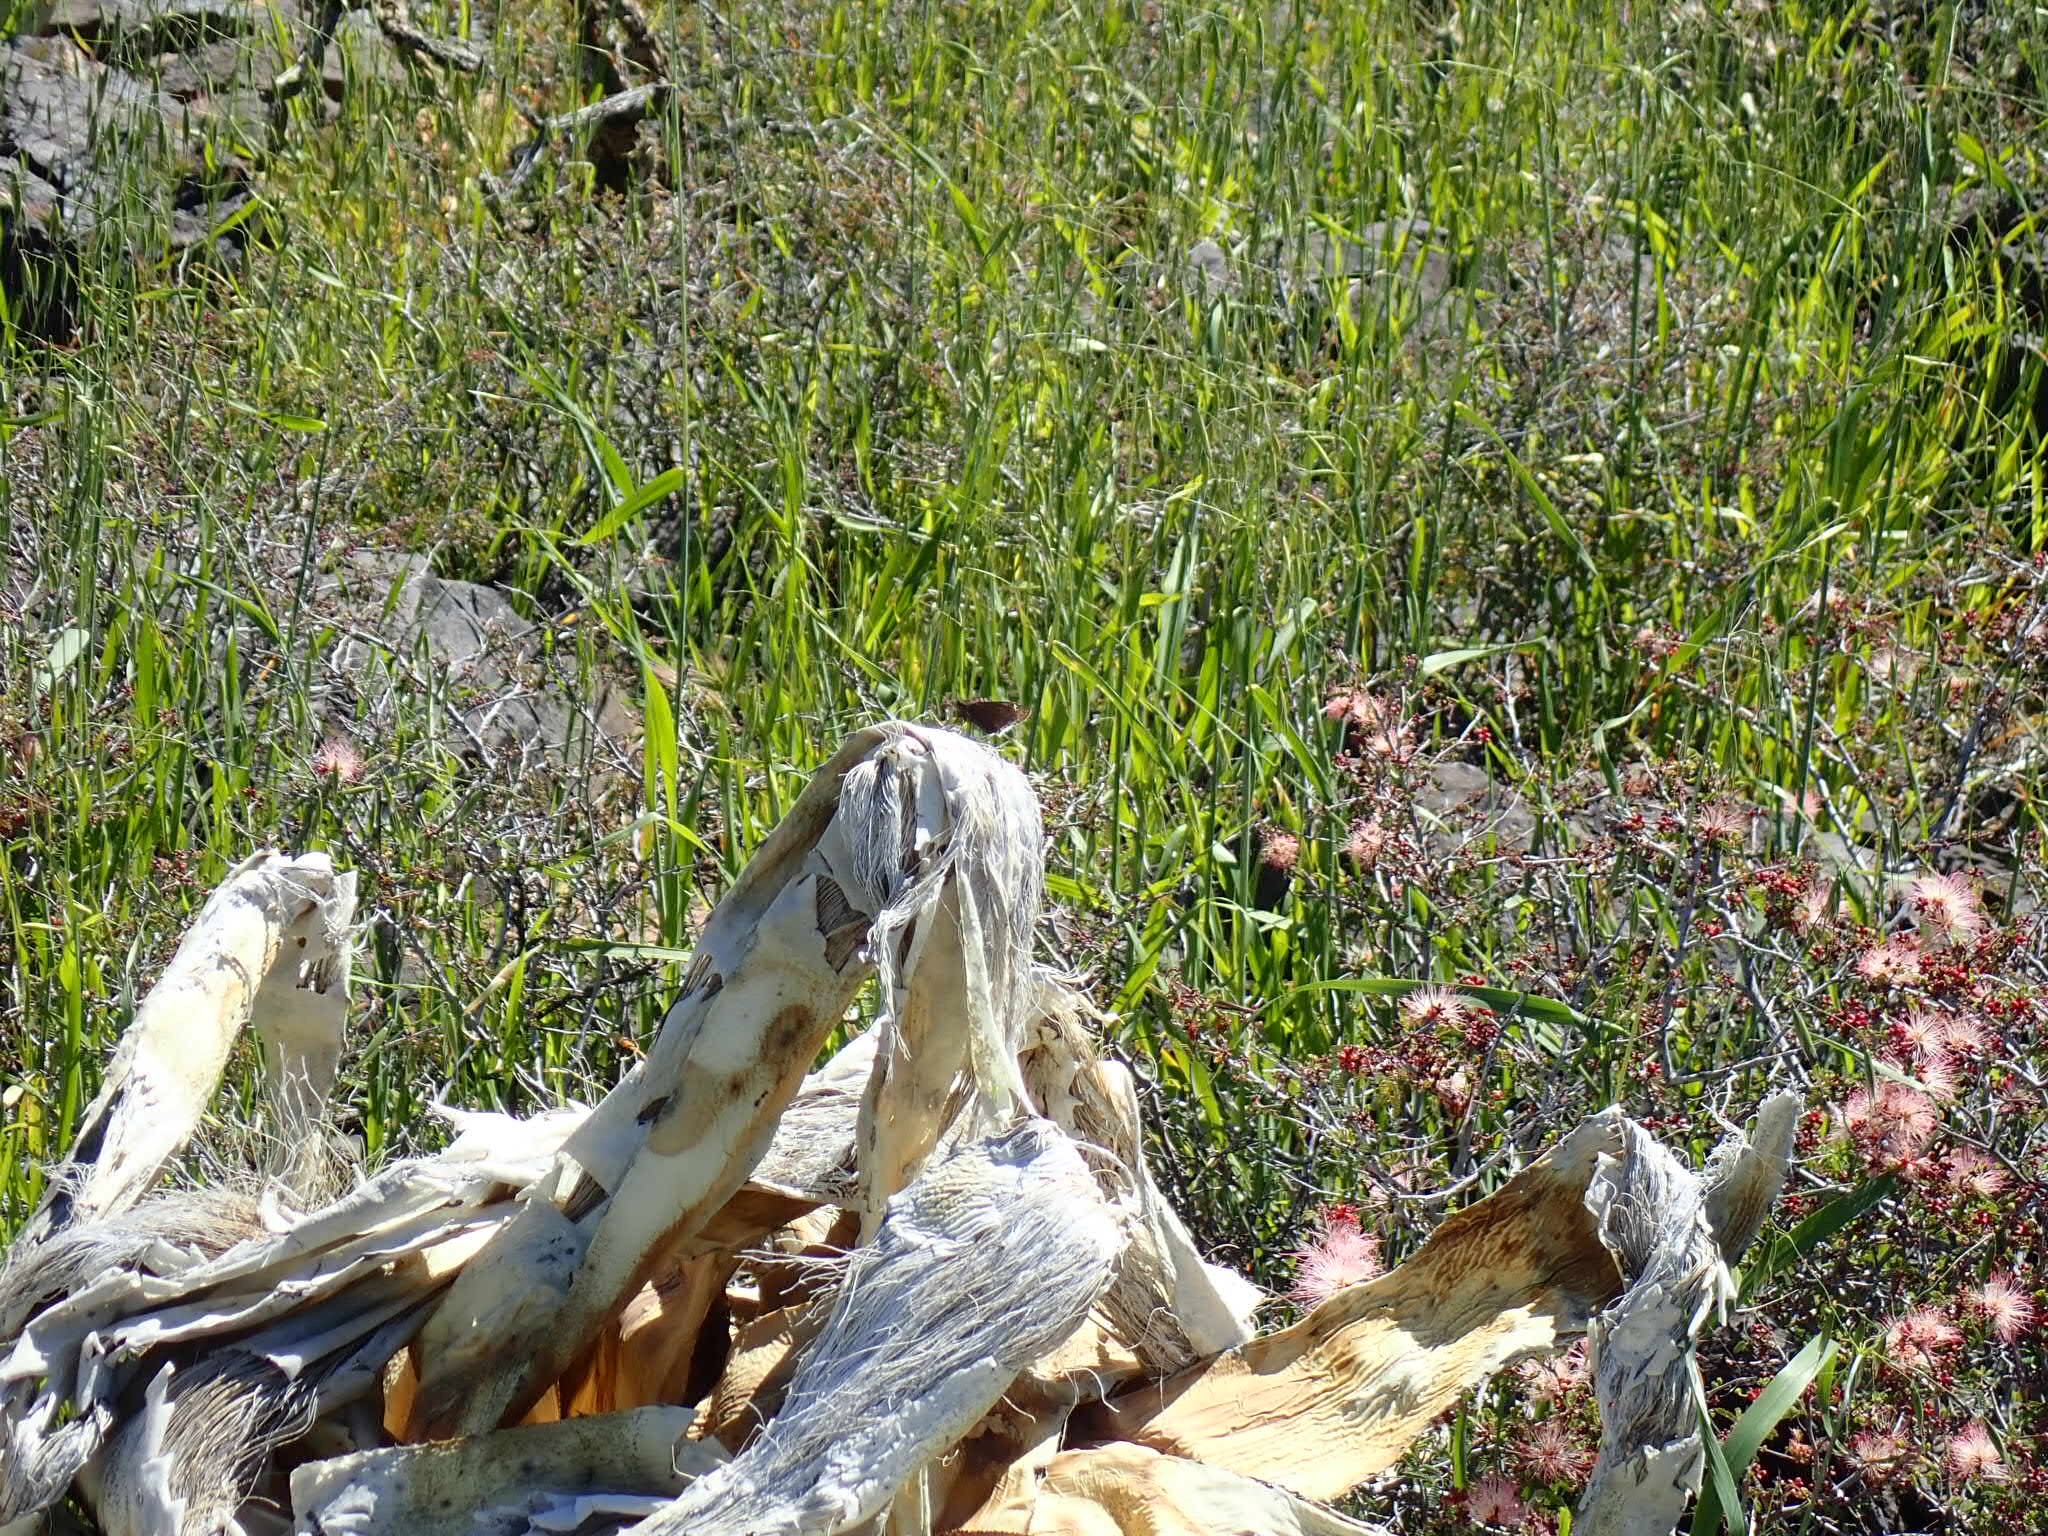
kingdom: Animalia
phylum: Arthropoda
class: Insecta
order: Lepidoptera
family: Hesperiidae
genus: Erynnis
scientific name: Erynnis tristis
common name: Mournful duskywing
